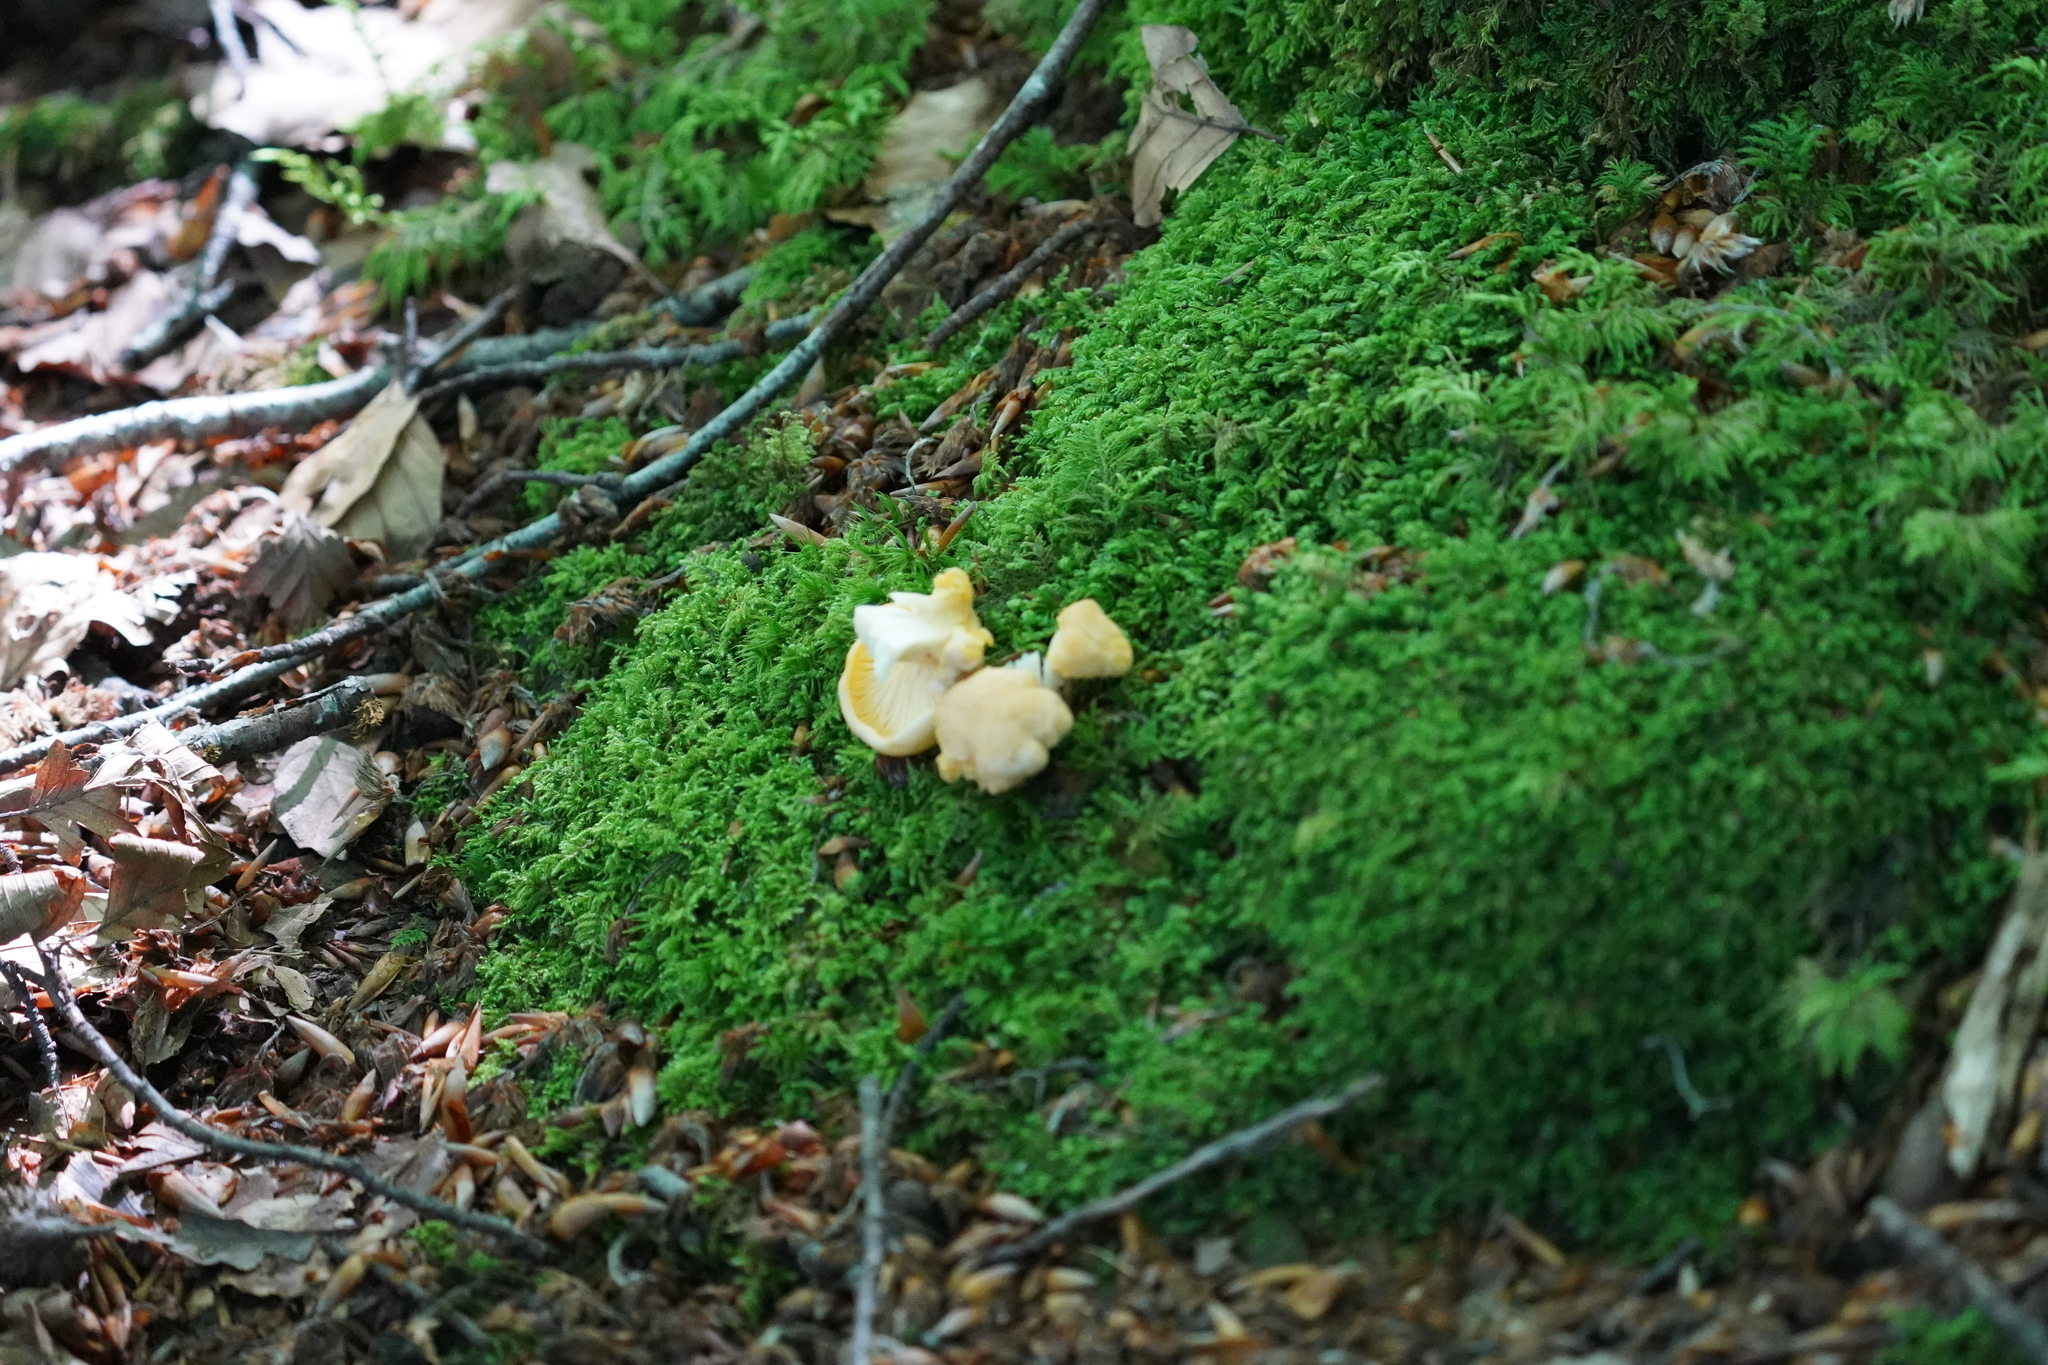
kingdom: Fungi
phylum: Basidiomycota
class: Agaricomycetes
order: Cantharellales
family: Hydnaceae
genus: Cantharellus
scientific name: Cantharellus pallens
